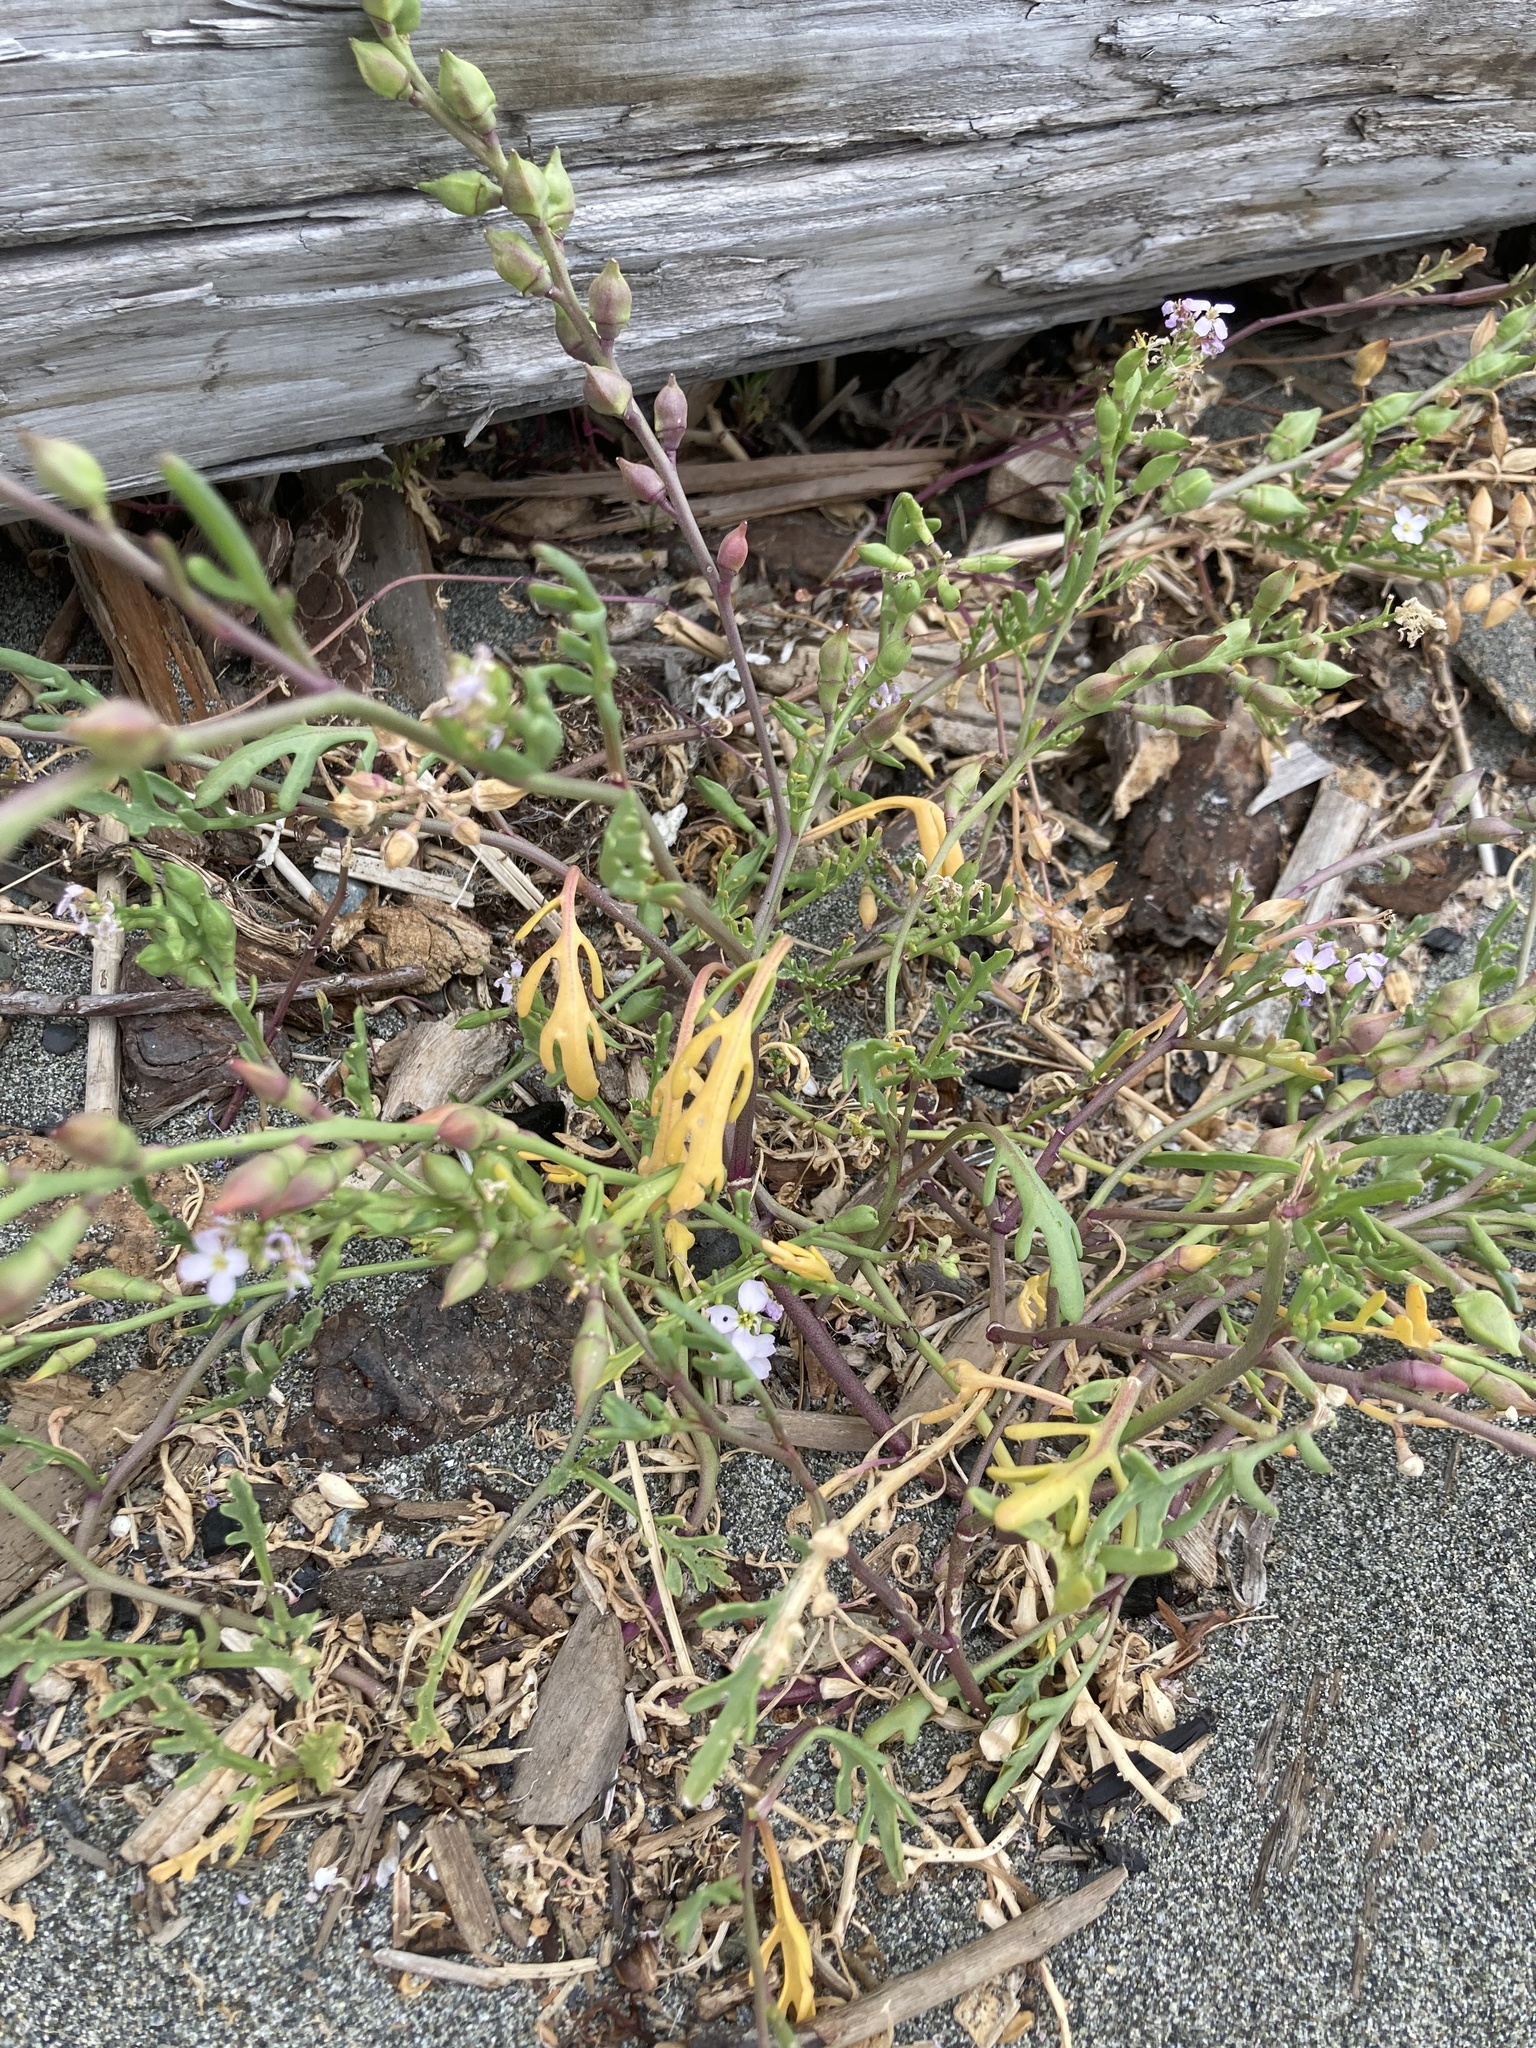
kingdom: Plantae
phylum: Tracheophyta
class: Magnoliopsida
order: Brassicales
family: Brassicaceae
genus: Cakile
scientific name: Cakile maritima
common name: Sea rocket
